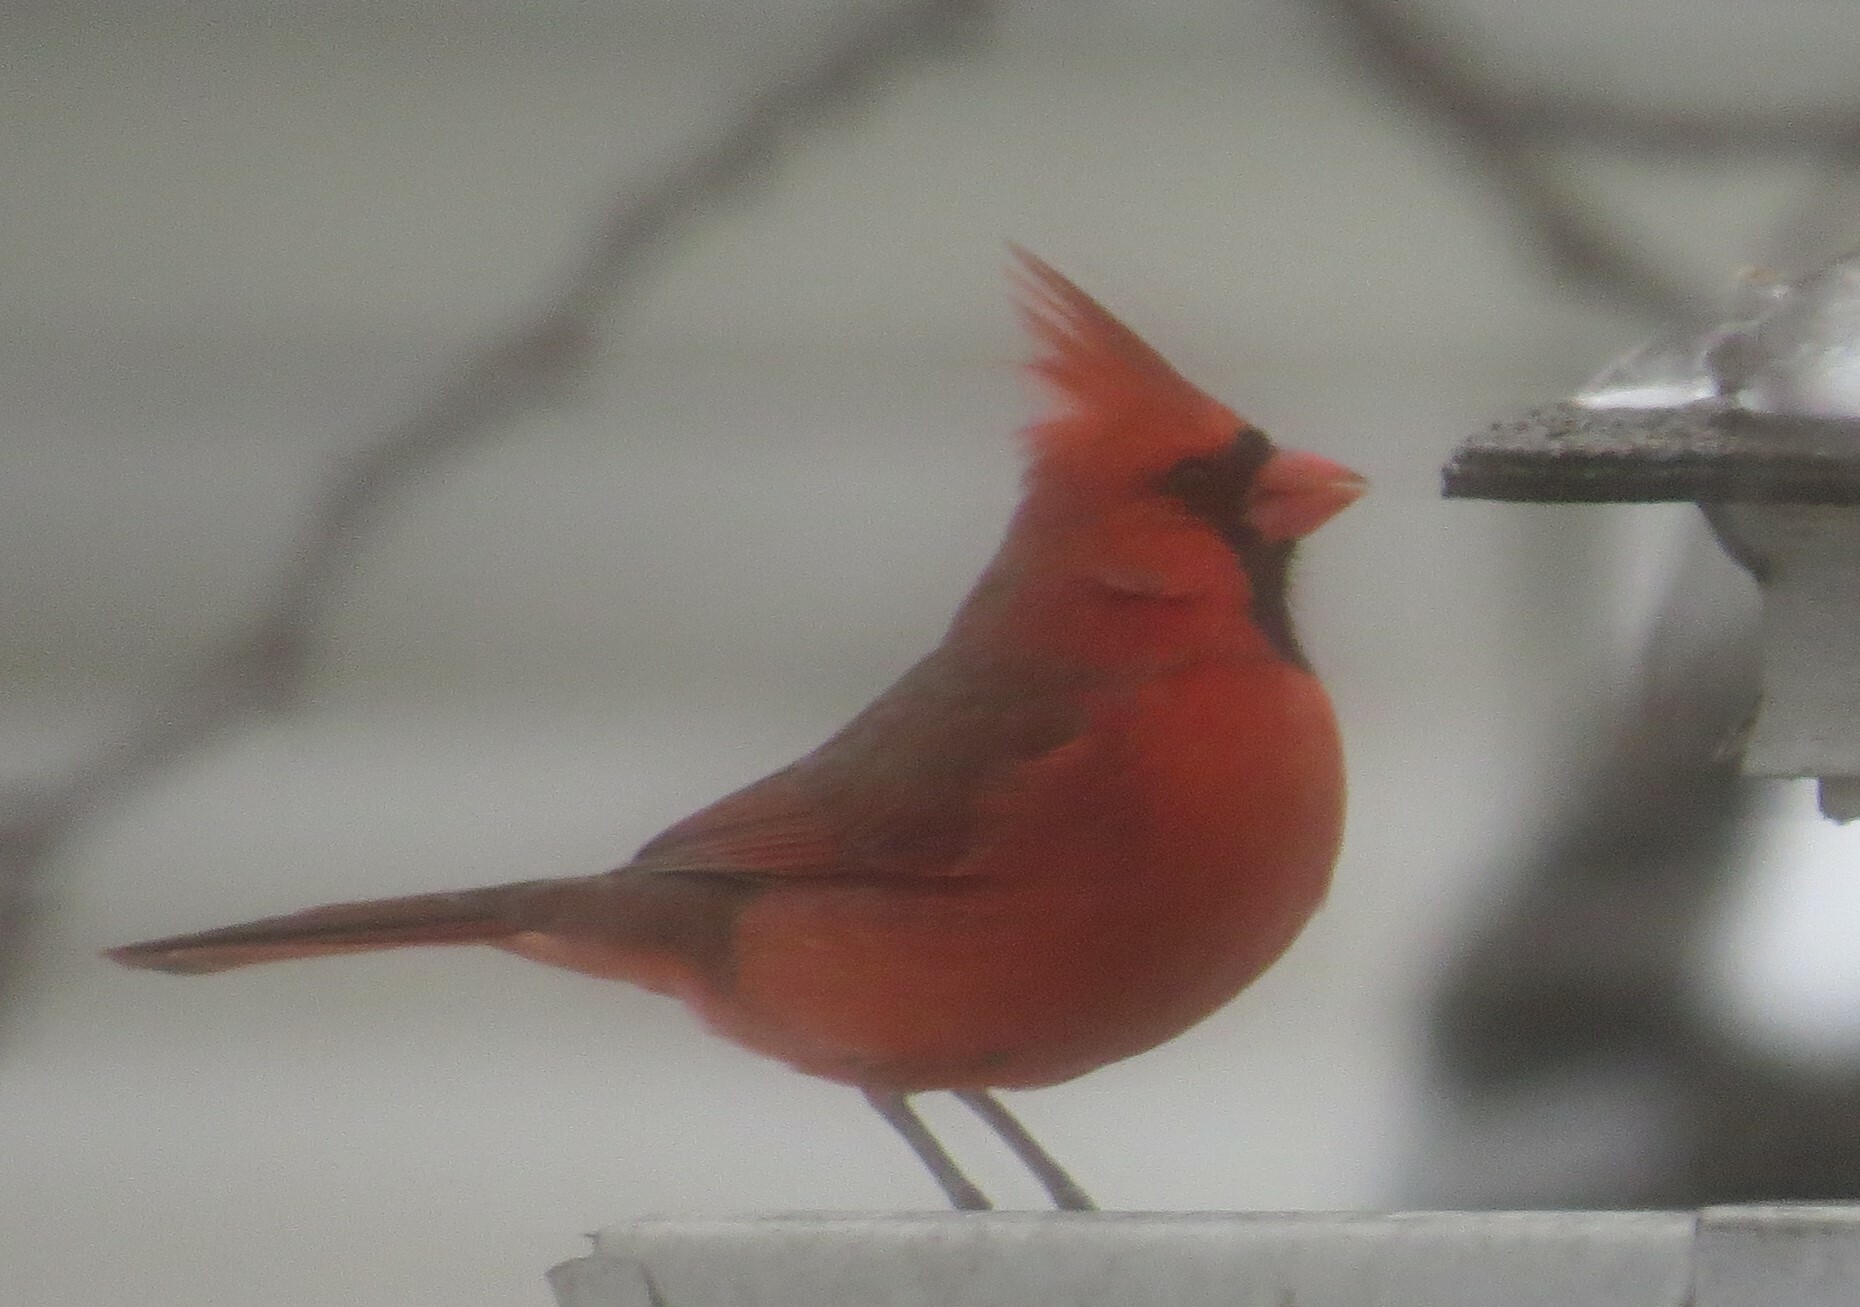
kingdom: Animalia
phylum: Chordata
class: Aves
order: Passeriformes
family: Cardinalidae
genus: Cardinalis
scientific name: Cardinalis cardinalis
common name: Northern cardinal
